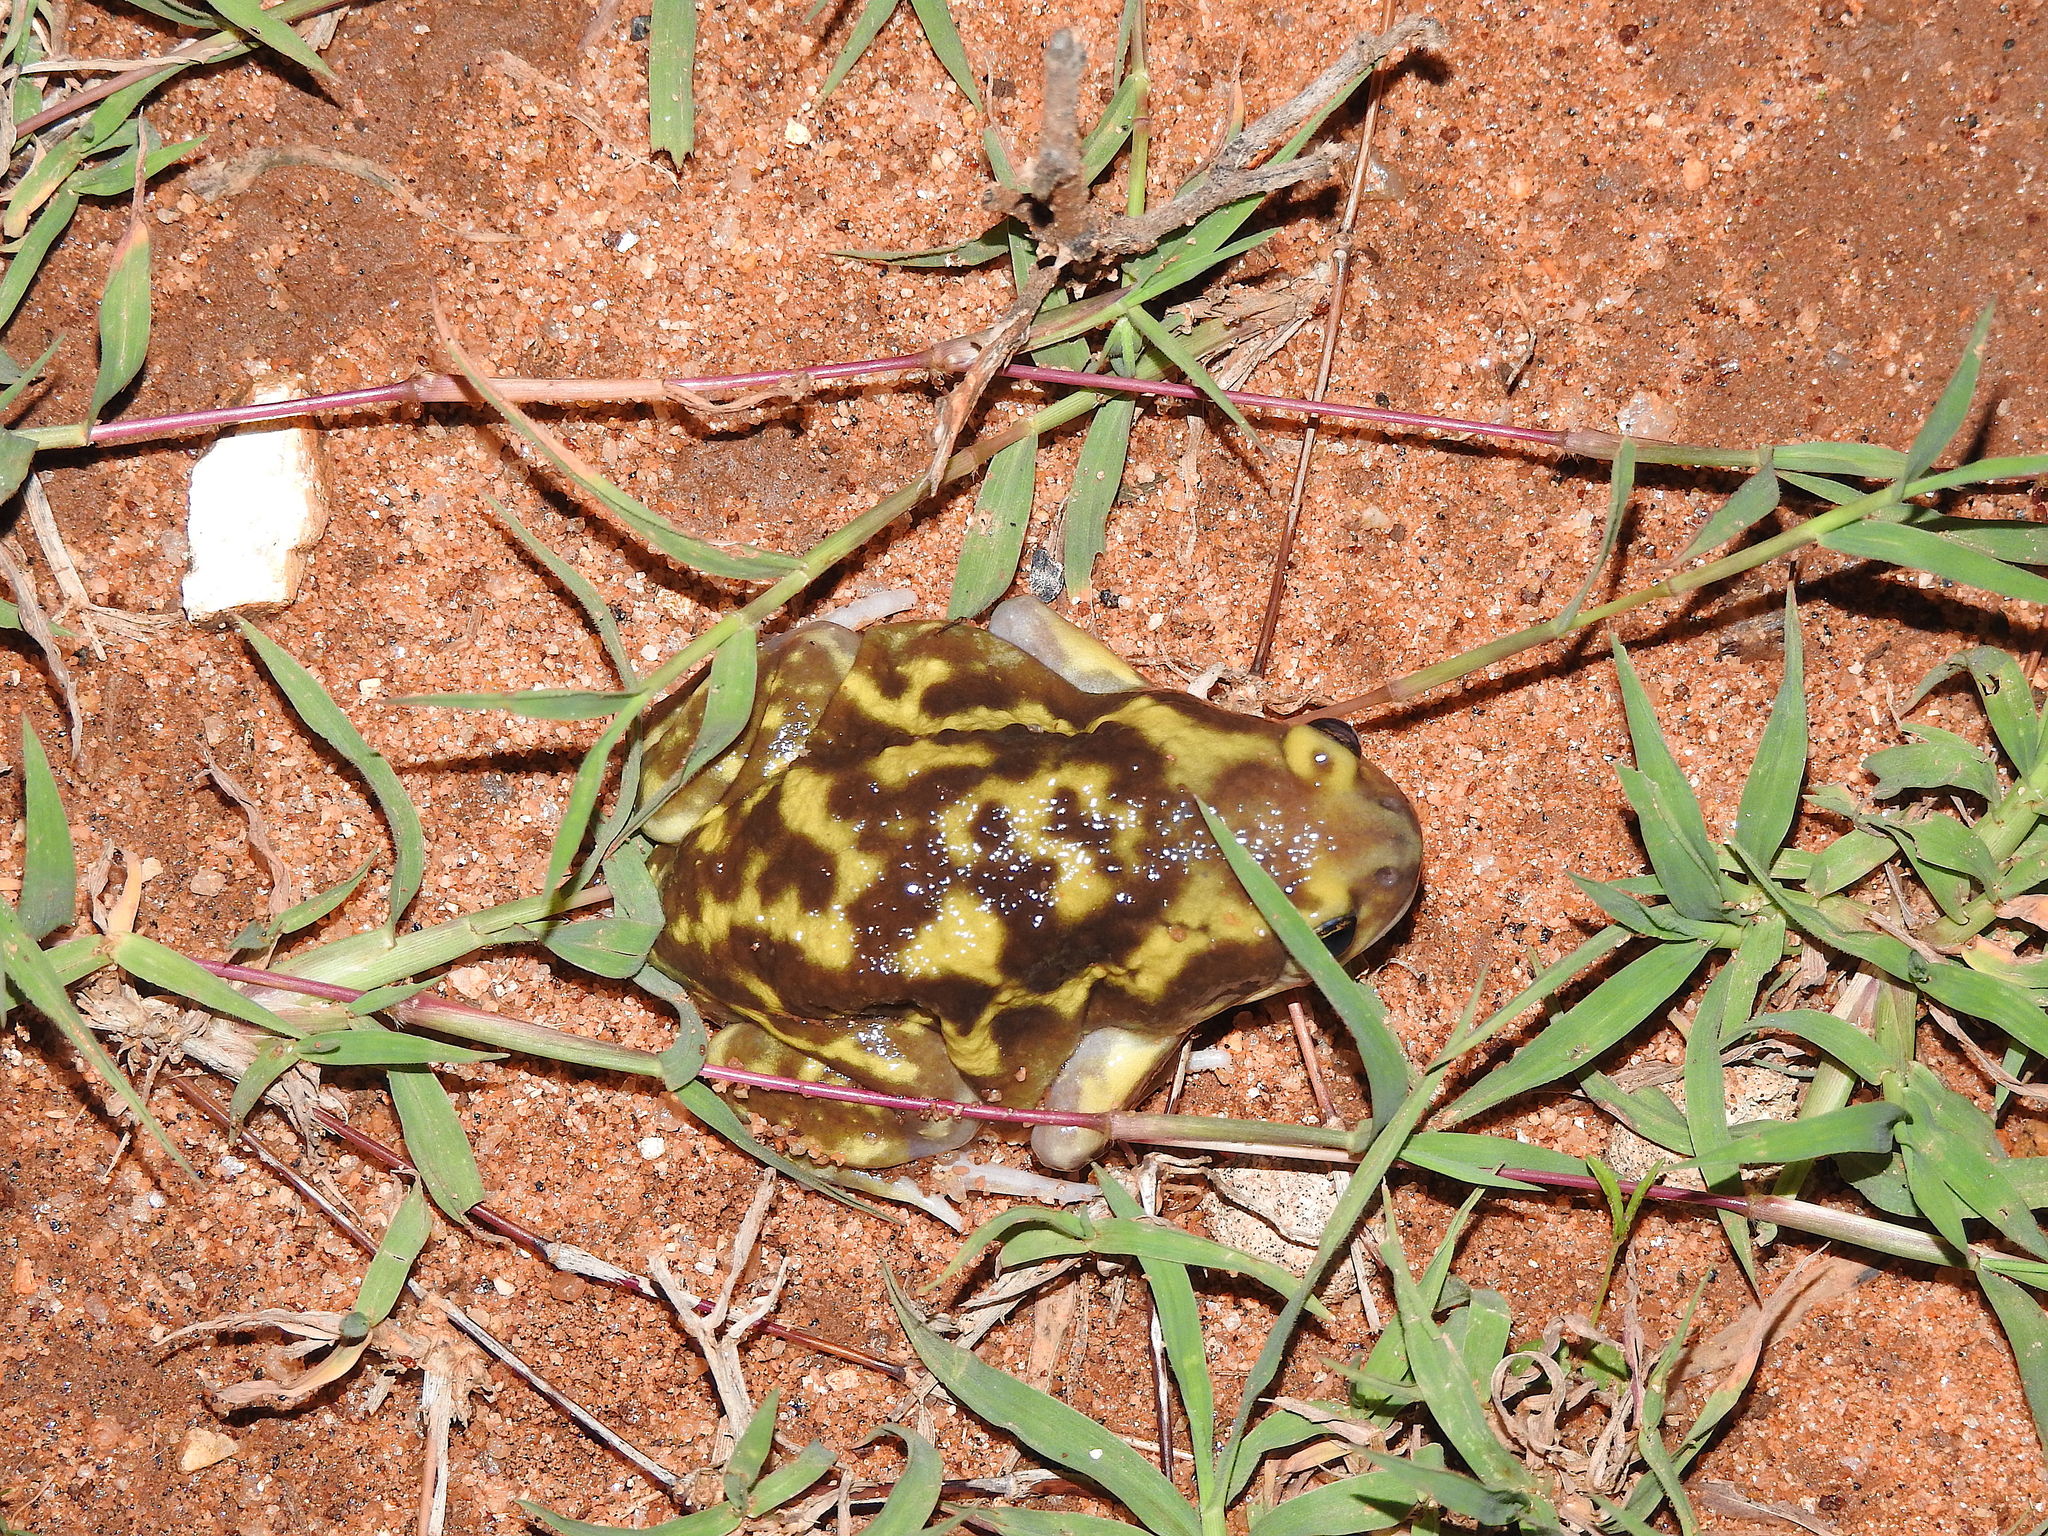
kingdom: Animalia
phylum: Chordata
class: Amphibia
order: Anura
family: Microhylidae
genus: Uperodon
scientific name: Uperodon systoma
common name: Balloon frog
